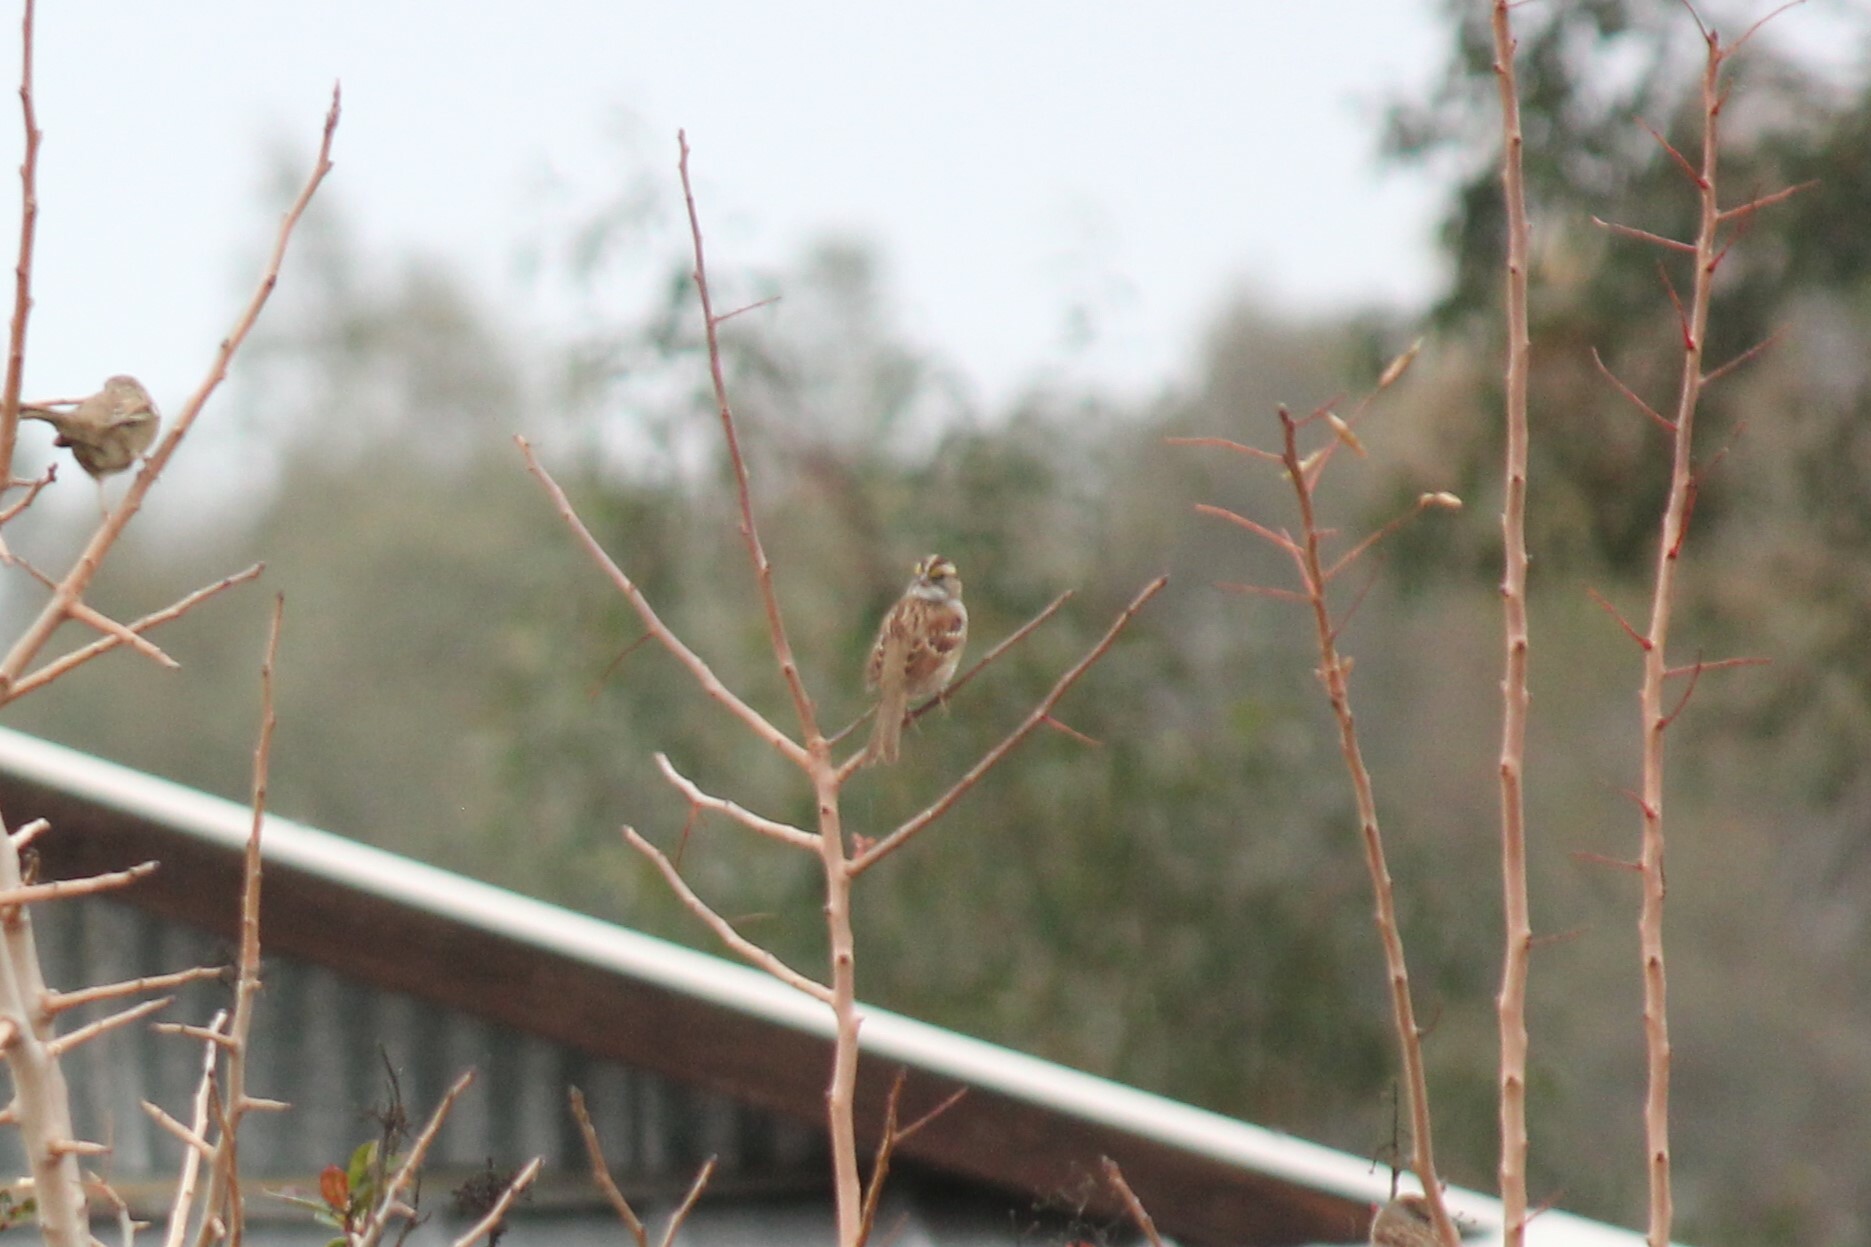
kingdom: Animalia
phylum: Chordata
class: Aves
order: Passeriformes
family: Passerellidae
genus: Zonotrichia
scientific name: Zonotrichia albicollis
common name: White-throated sparrow
